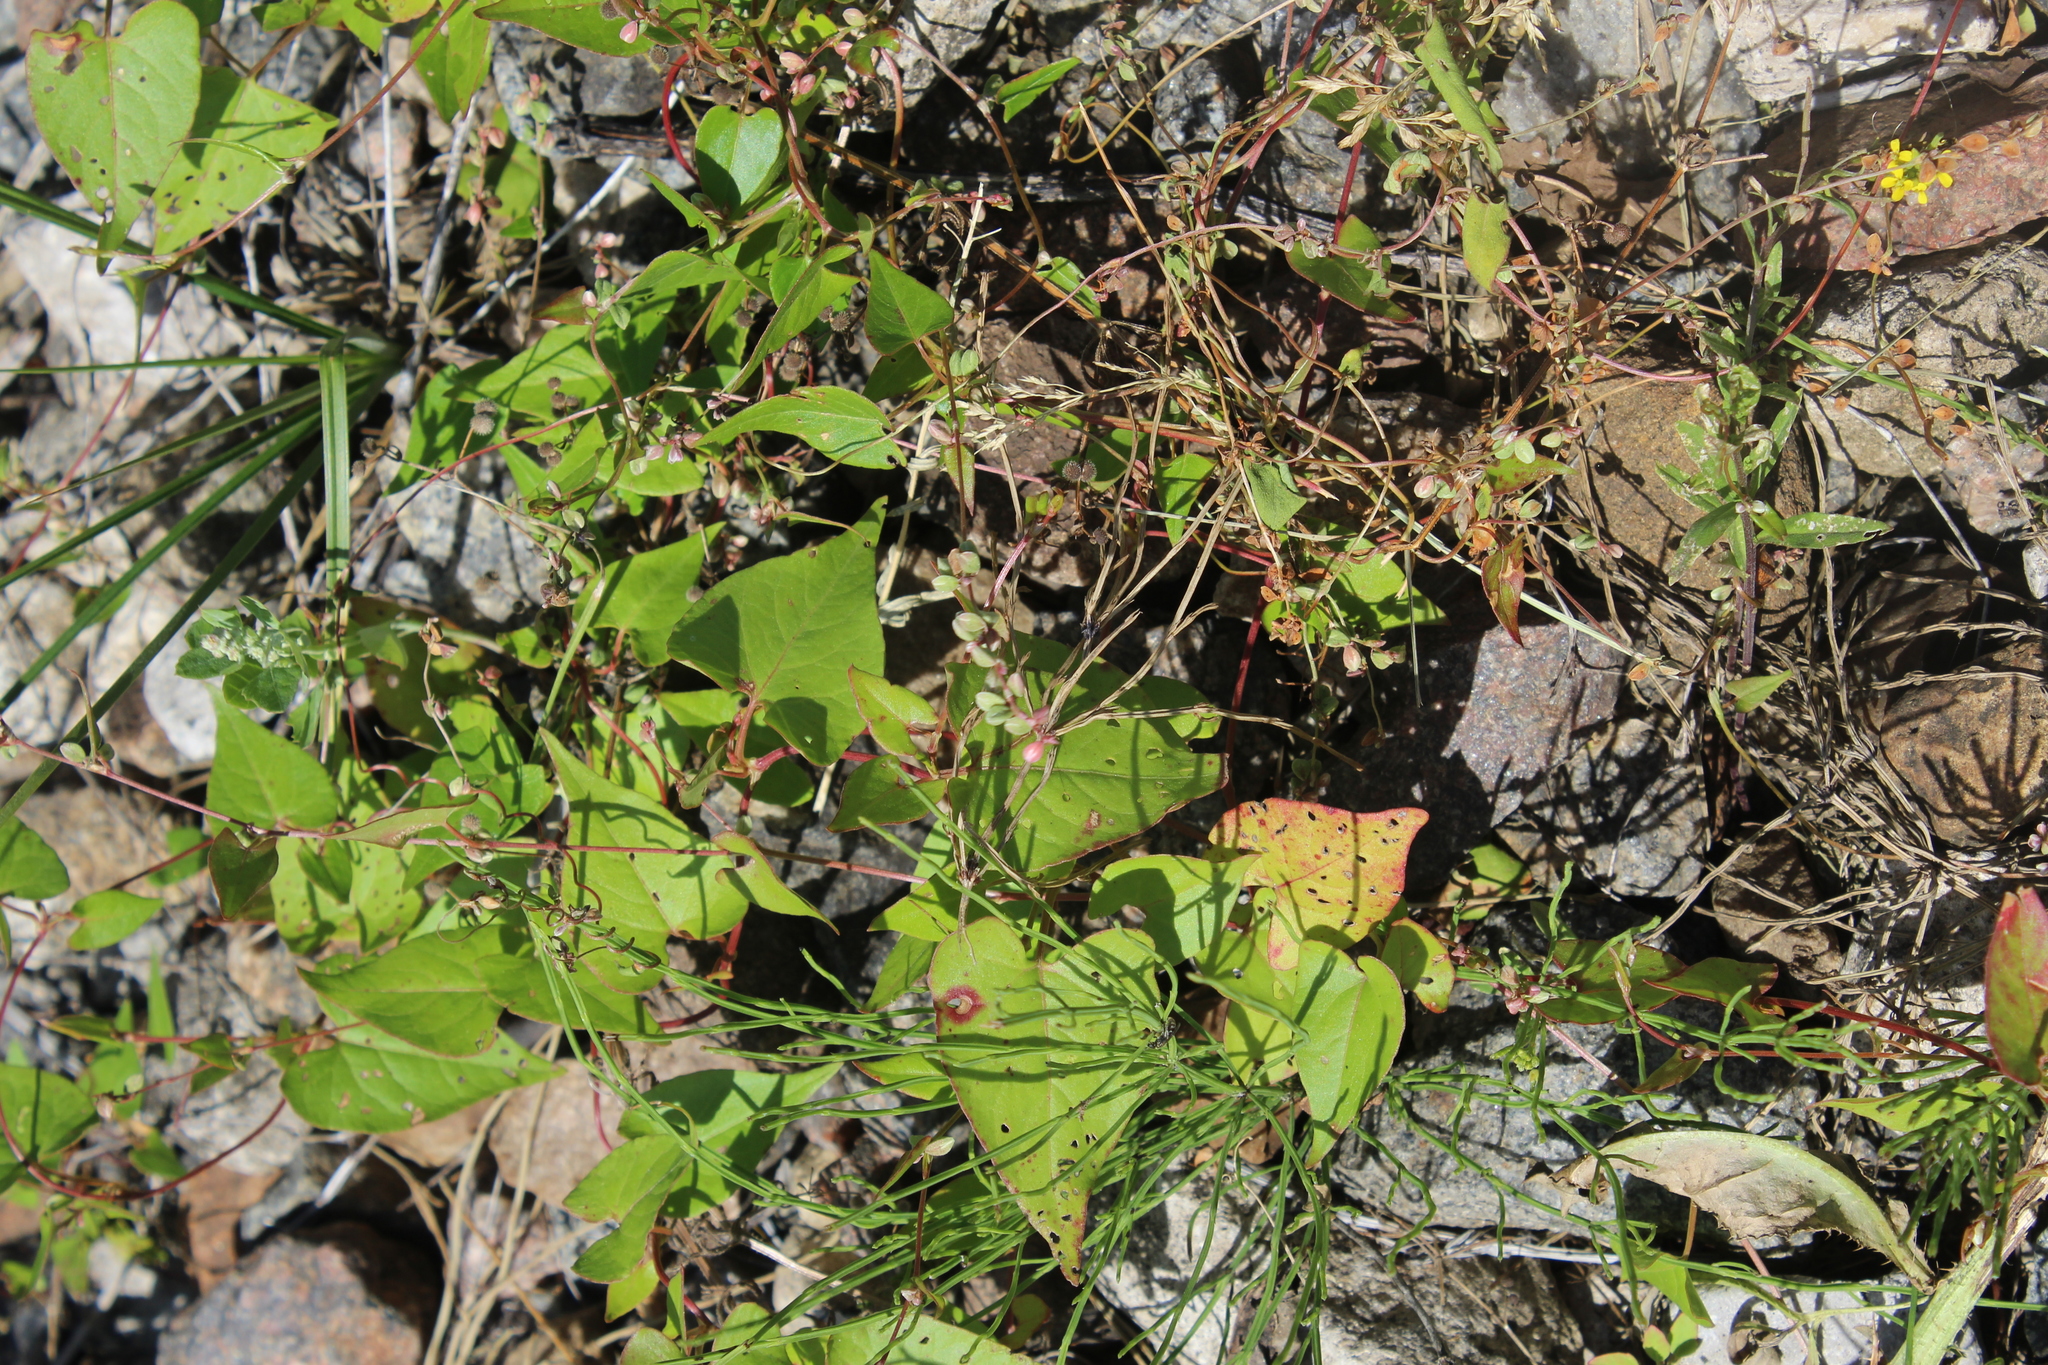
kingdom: Plantae
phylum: Tracheophyta
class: Magnoliopsida
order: Caryophyllales
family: Polygonaceae
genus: Fallopia
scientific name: Fallopia convolvulus
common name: Black bindweed
